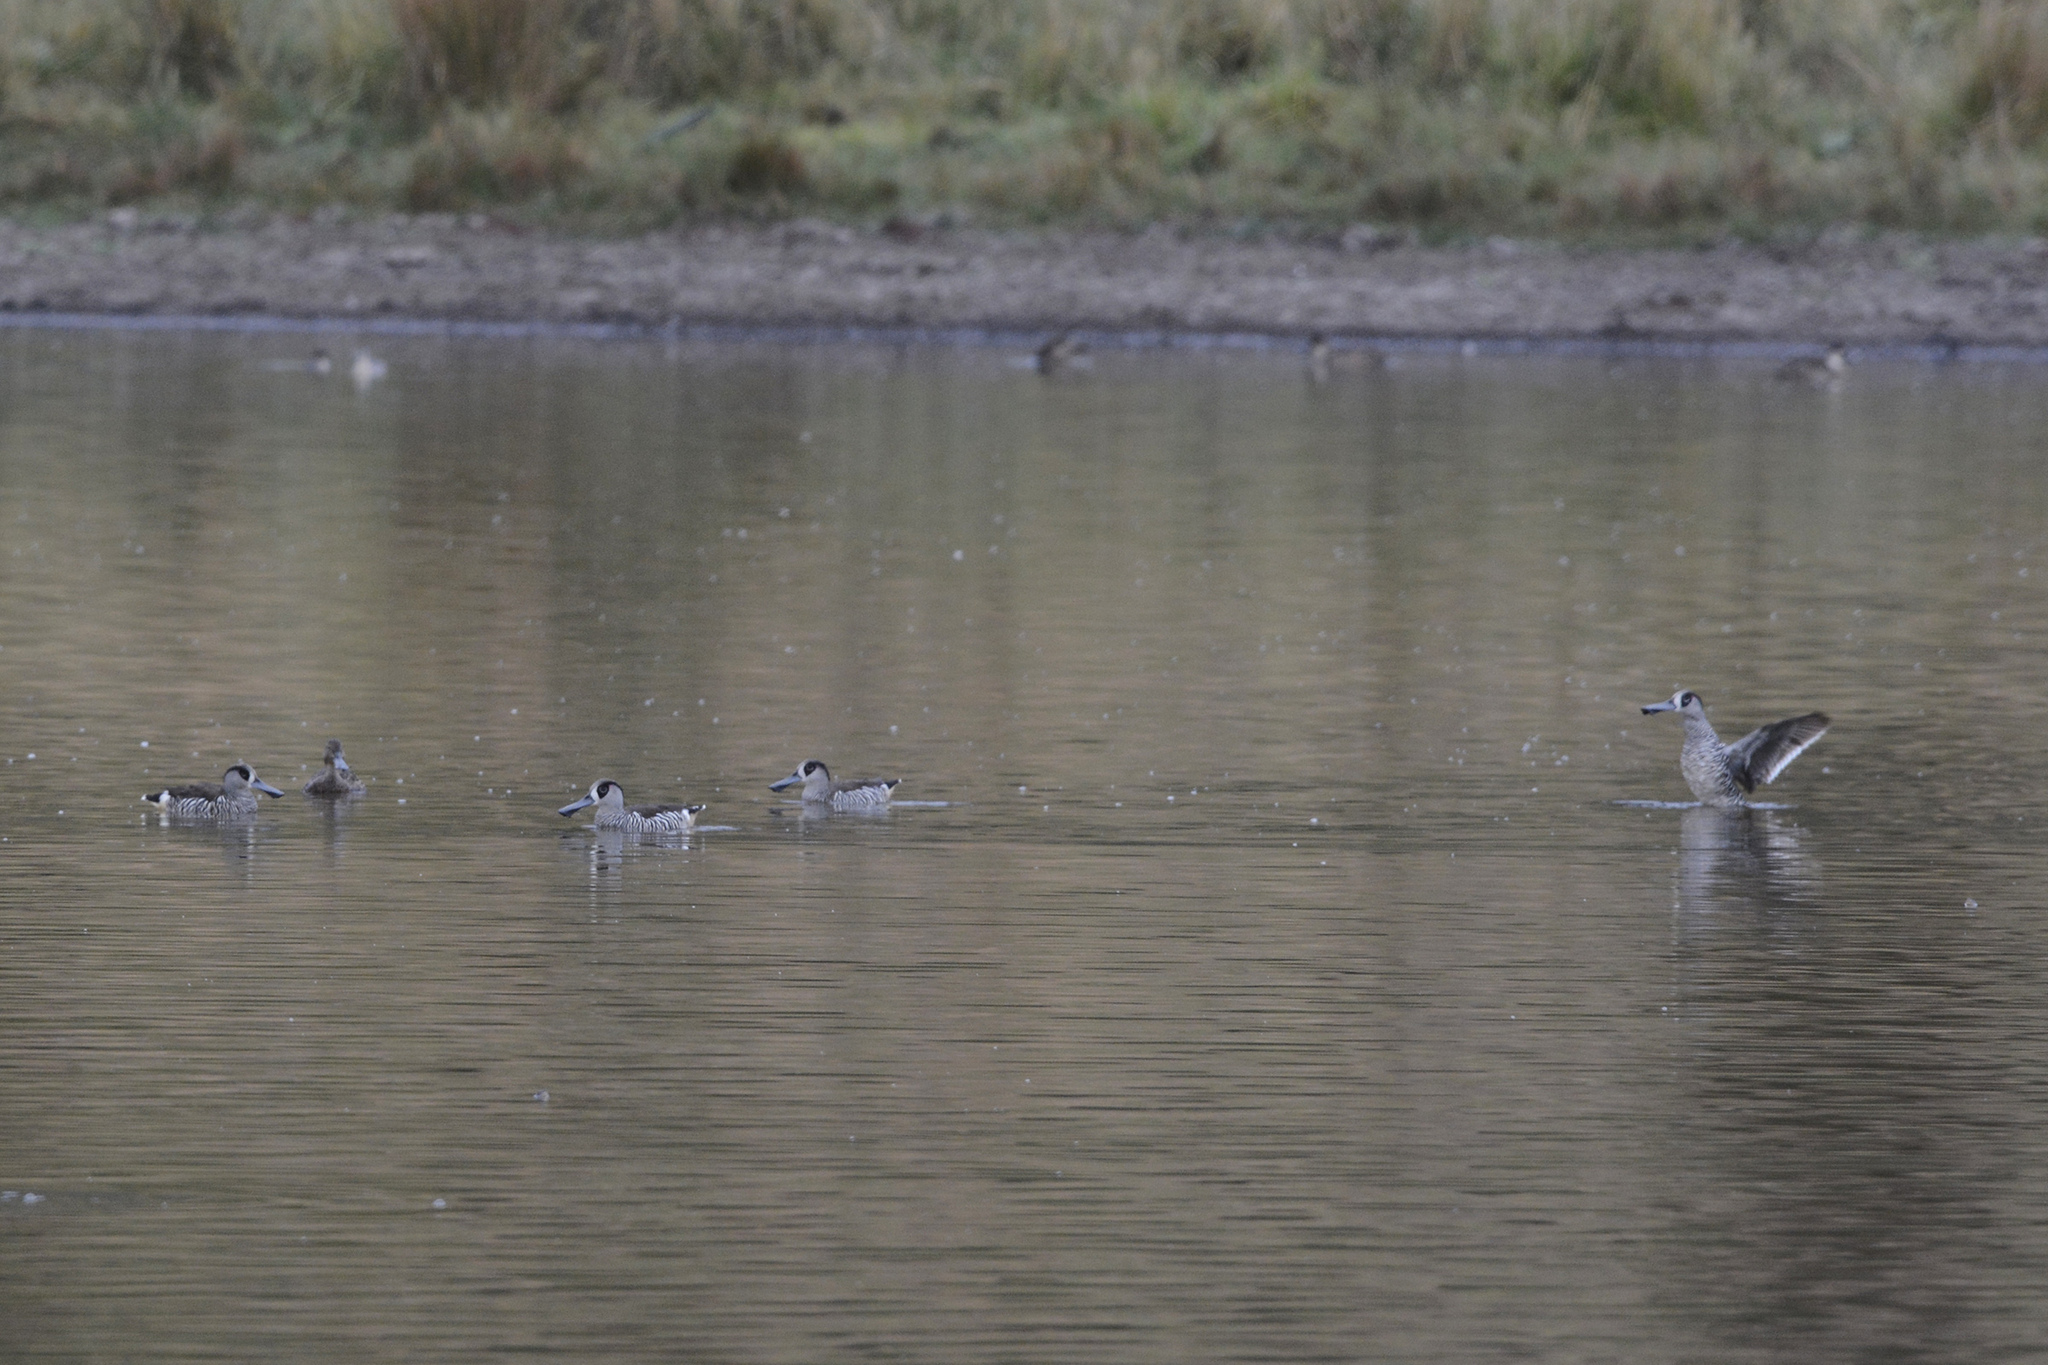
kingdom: Animalia
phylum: Chordata
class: Aves
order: Anseriformes
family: Anatidae
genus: Malacorhynchus
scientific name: Malacorhynchus membranaceus
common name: Pink-eared duck
